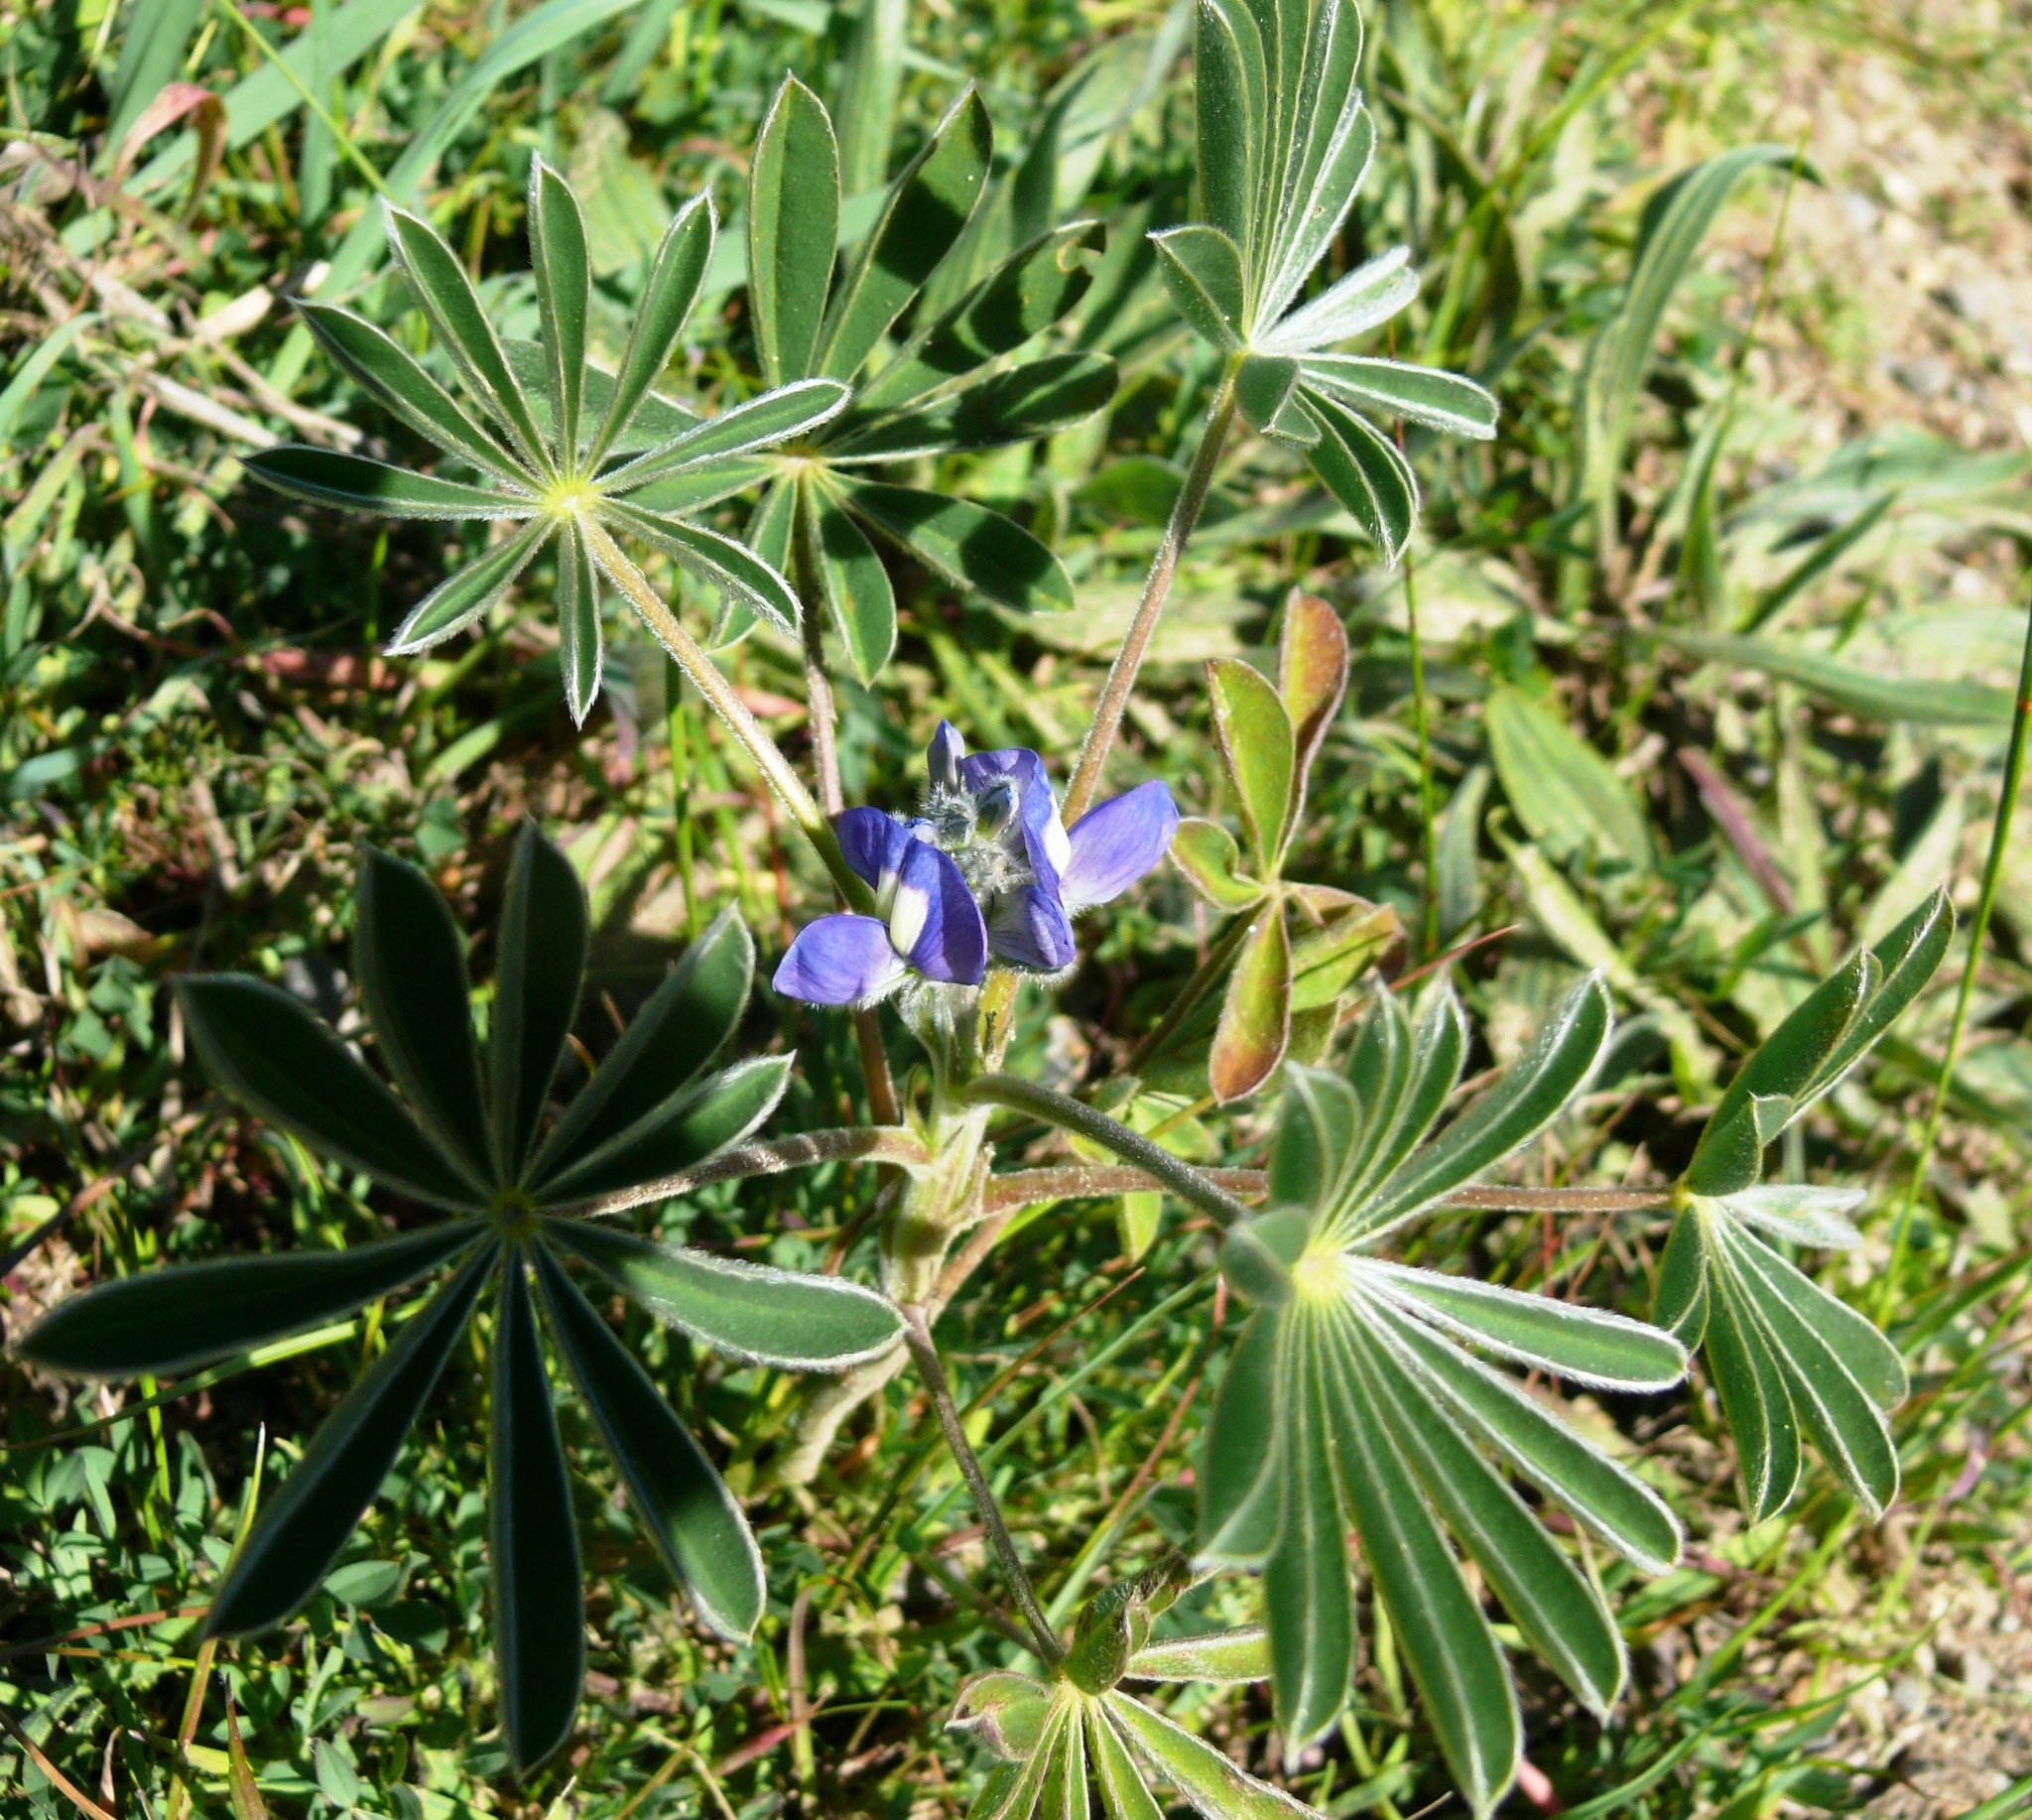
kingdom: Plantae
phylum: Tracheophyta
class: Magnoliopsida
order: Fabales
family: Fabaceae
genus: Lupinus
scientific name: Lupinus cosentinii
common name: Hairy blue lupin
